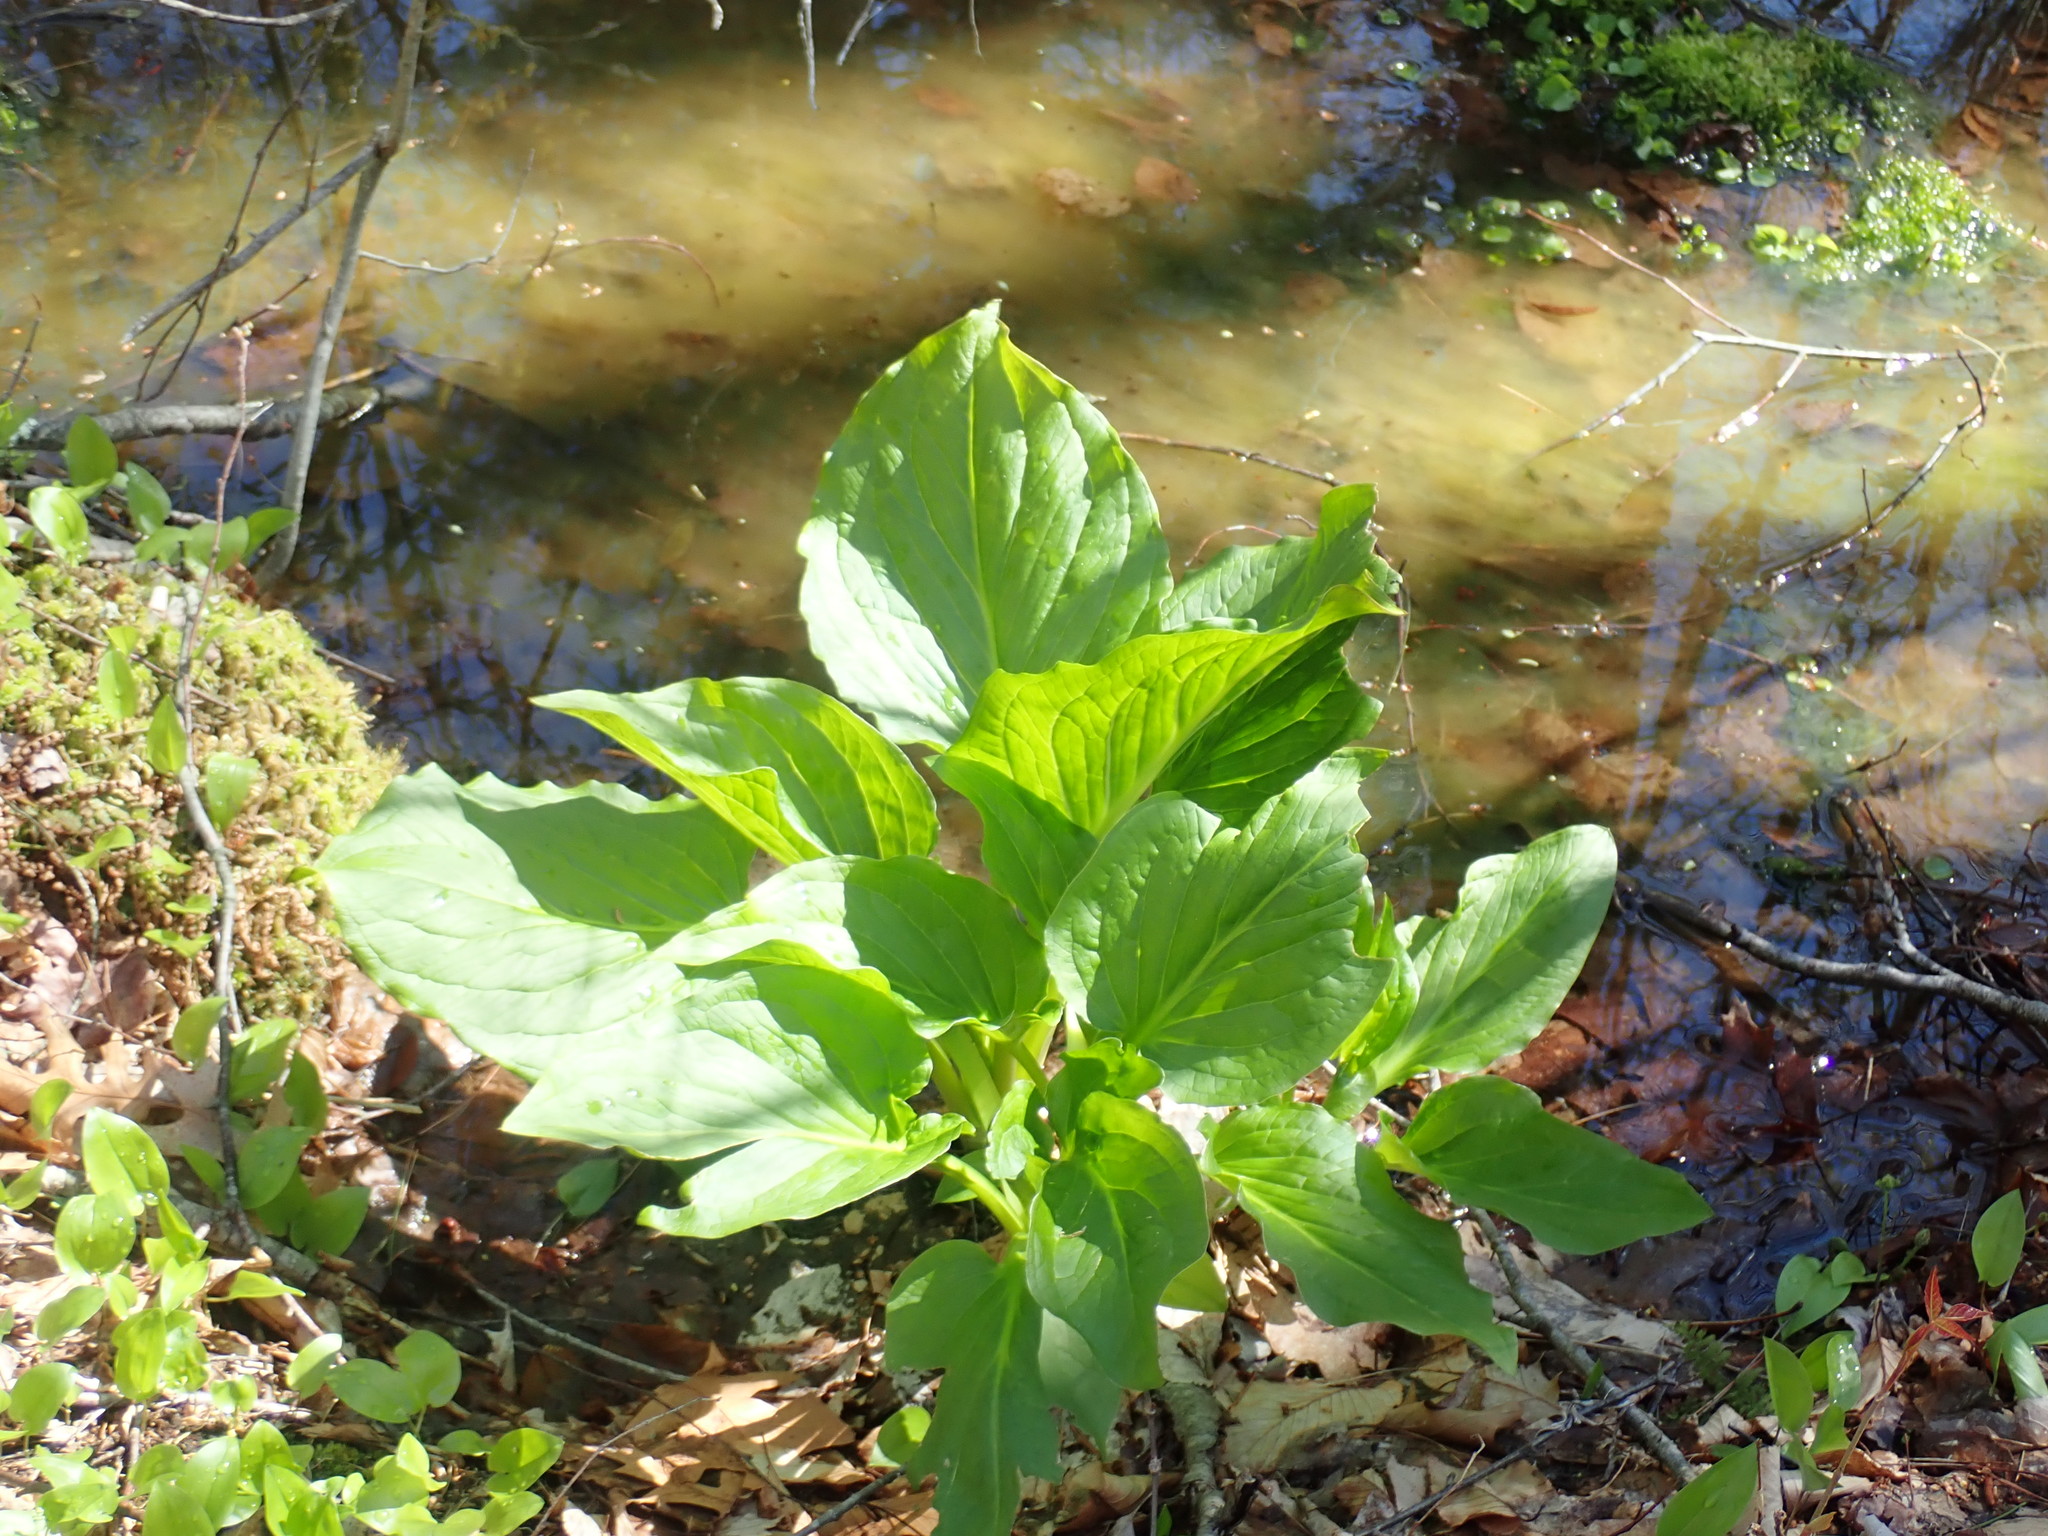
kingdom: Plantae
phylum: Tracheophyta
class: Liliopsida
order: Alismatales
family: Araceae
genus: Symplocarpus
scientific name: Symplocarpus foetidus
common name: Eastern skunk cabbage
